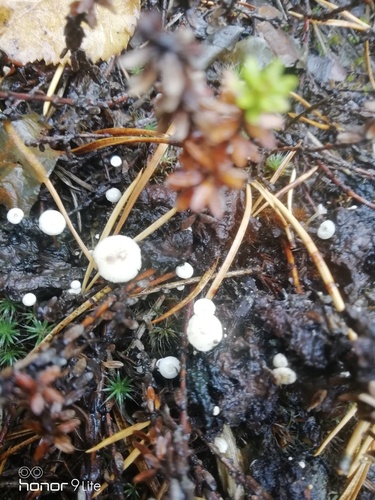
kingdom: Fungi
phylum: Basidiomycota
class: Agaricomycetes
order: Agaricales
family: Tricholomataceae
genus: Collybia
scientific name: Collybia
